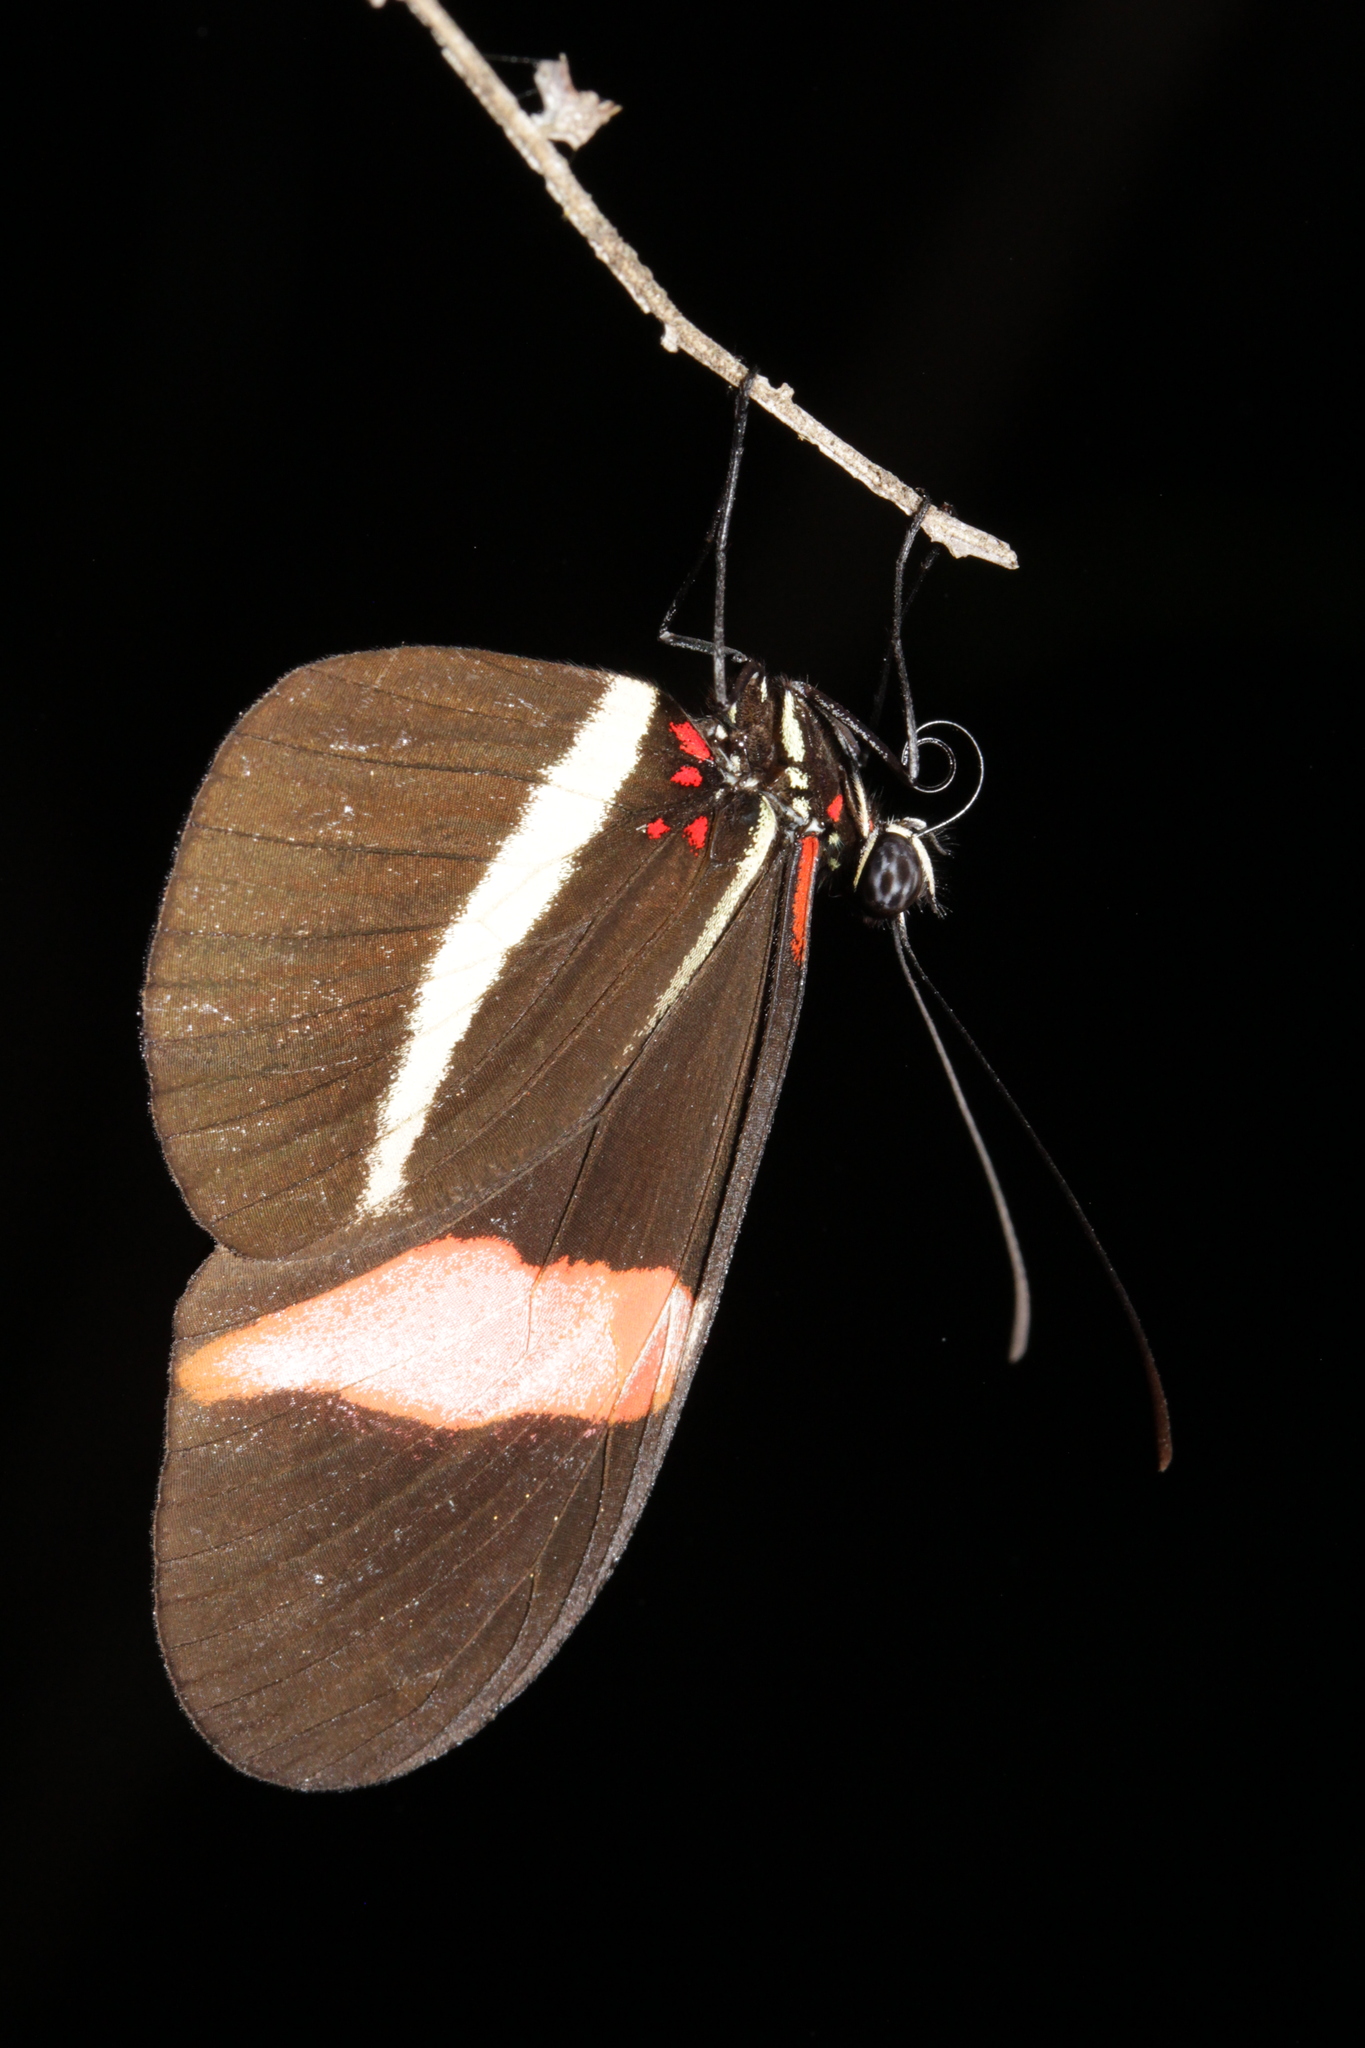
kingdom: Animalia
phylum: Arthropoda
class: Insecta
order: Lepidoptera
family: Nymphalidae
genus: Heliconius
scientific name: Heliconius erato
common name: Common patch longwing
